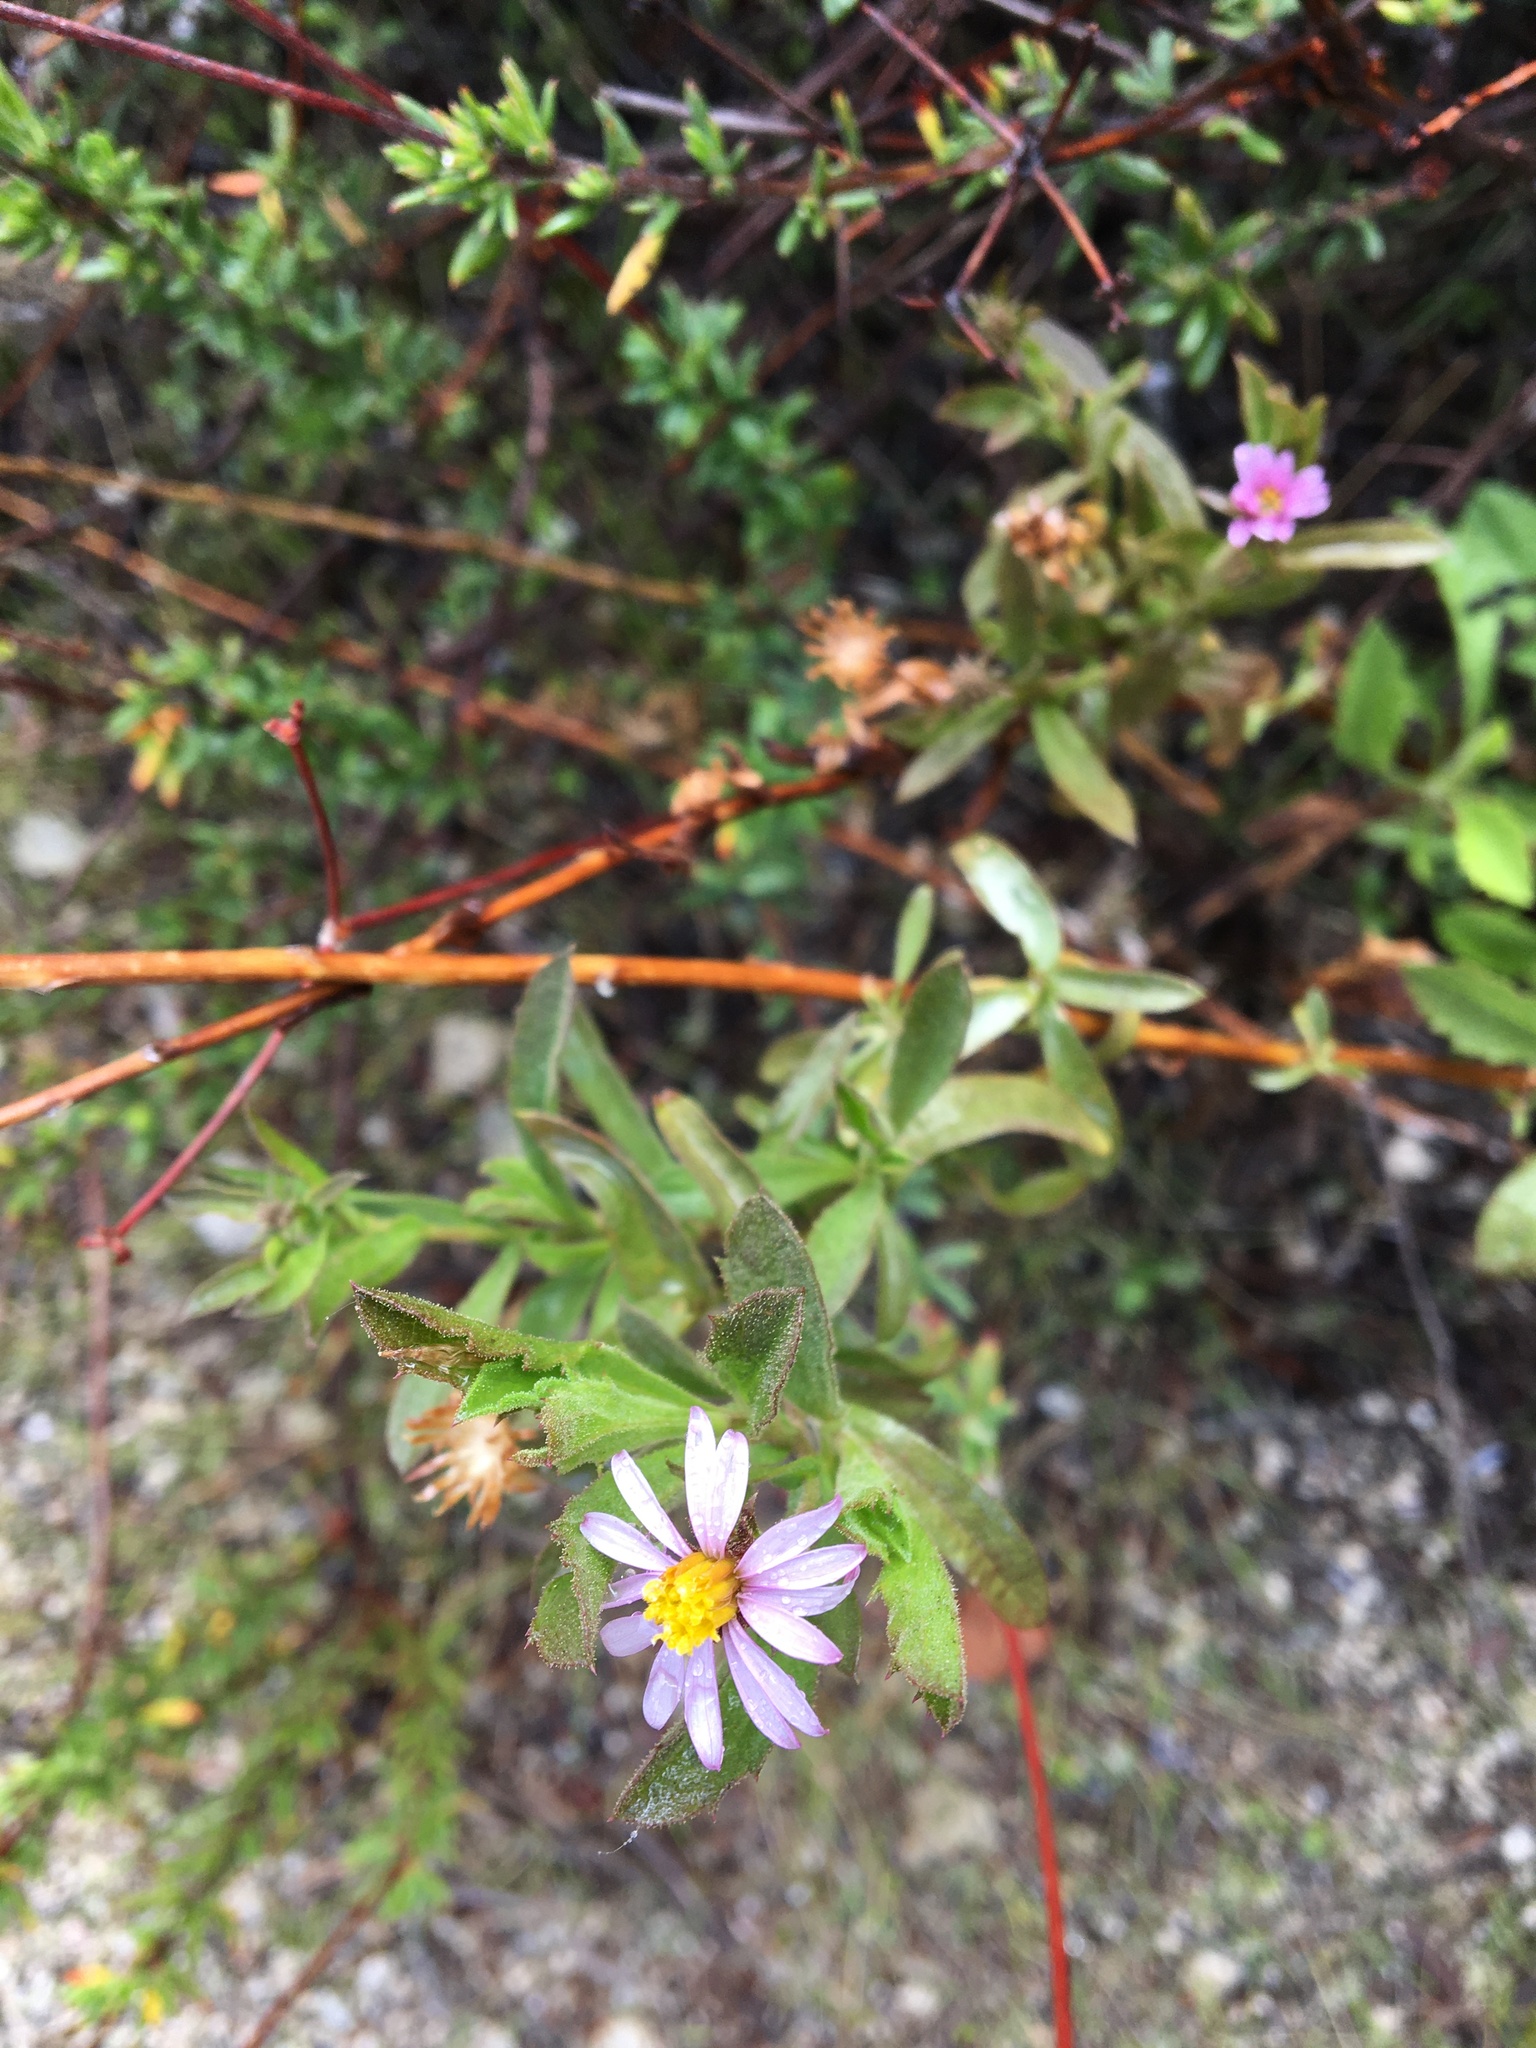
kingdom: Plantae
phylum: Tracheophyta
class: Magnoliopsida
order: Asterales
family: Asteraceae
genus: Corethrogyne
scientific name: Corethrogyne filaginifolia
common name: Sand-aster
